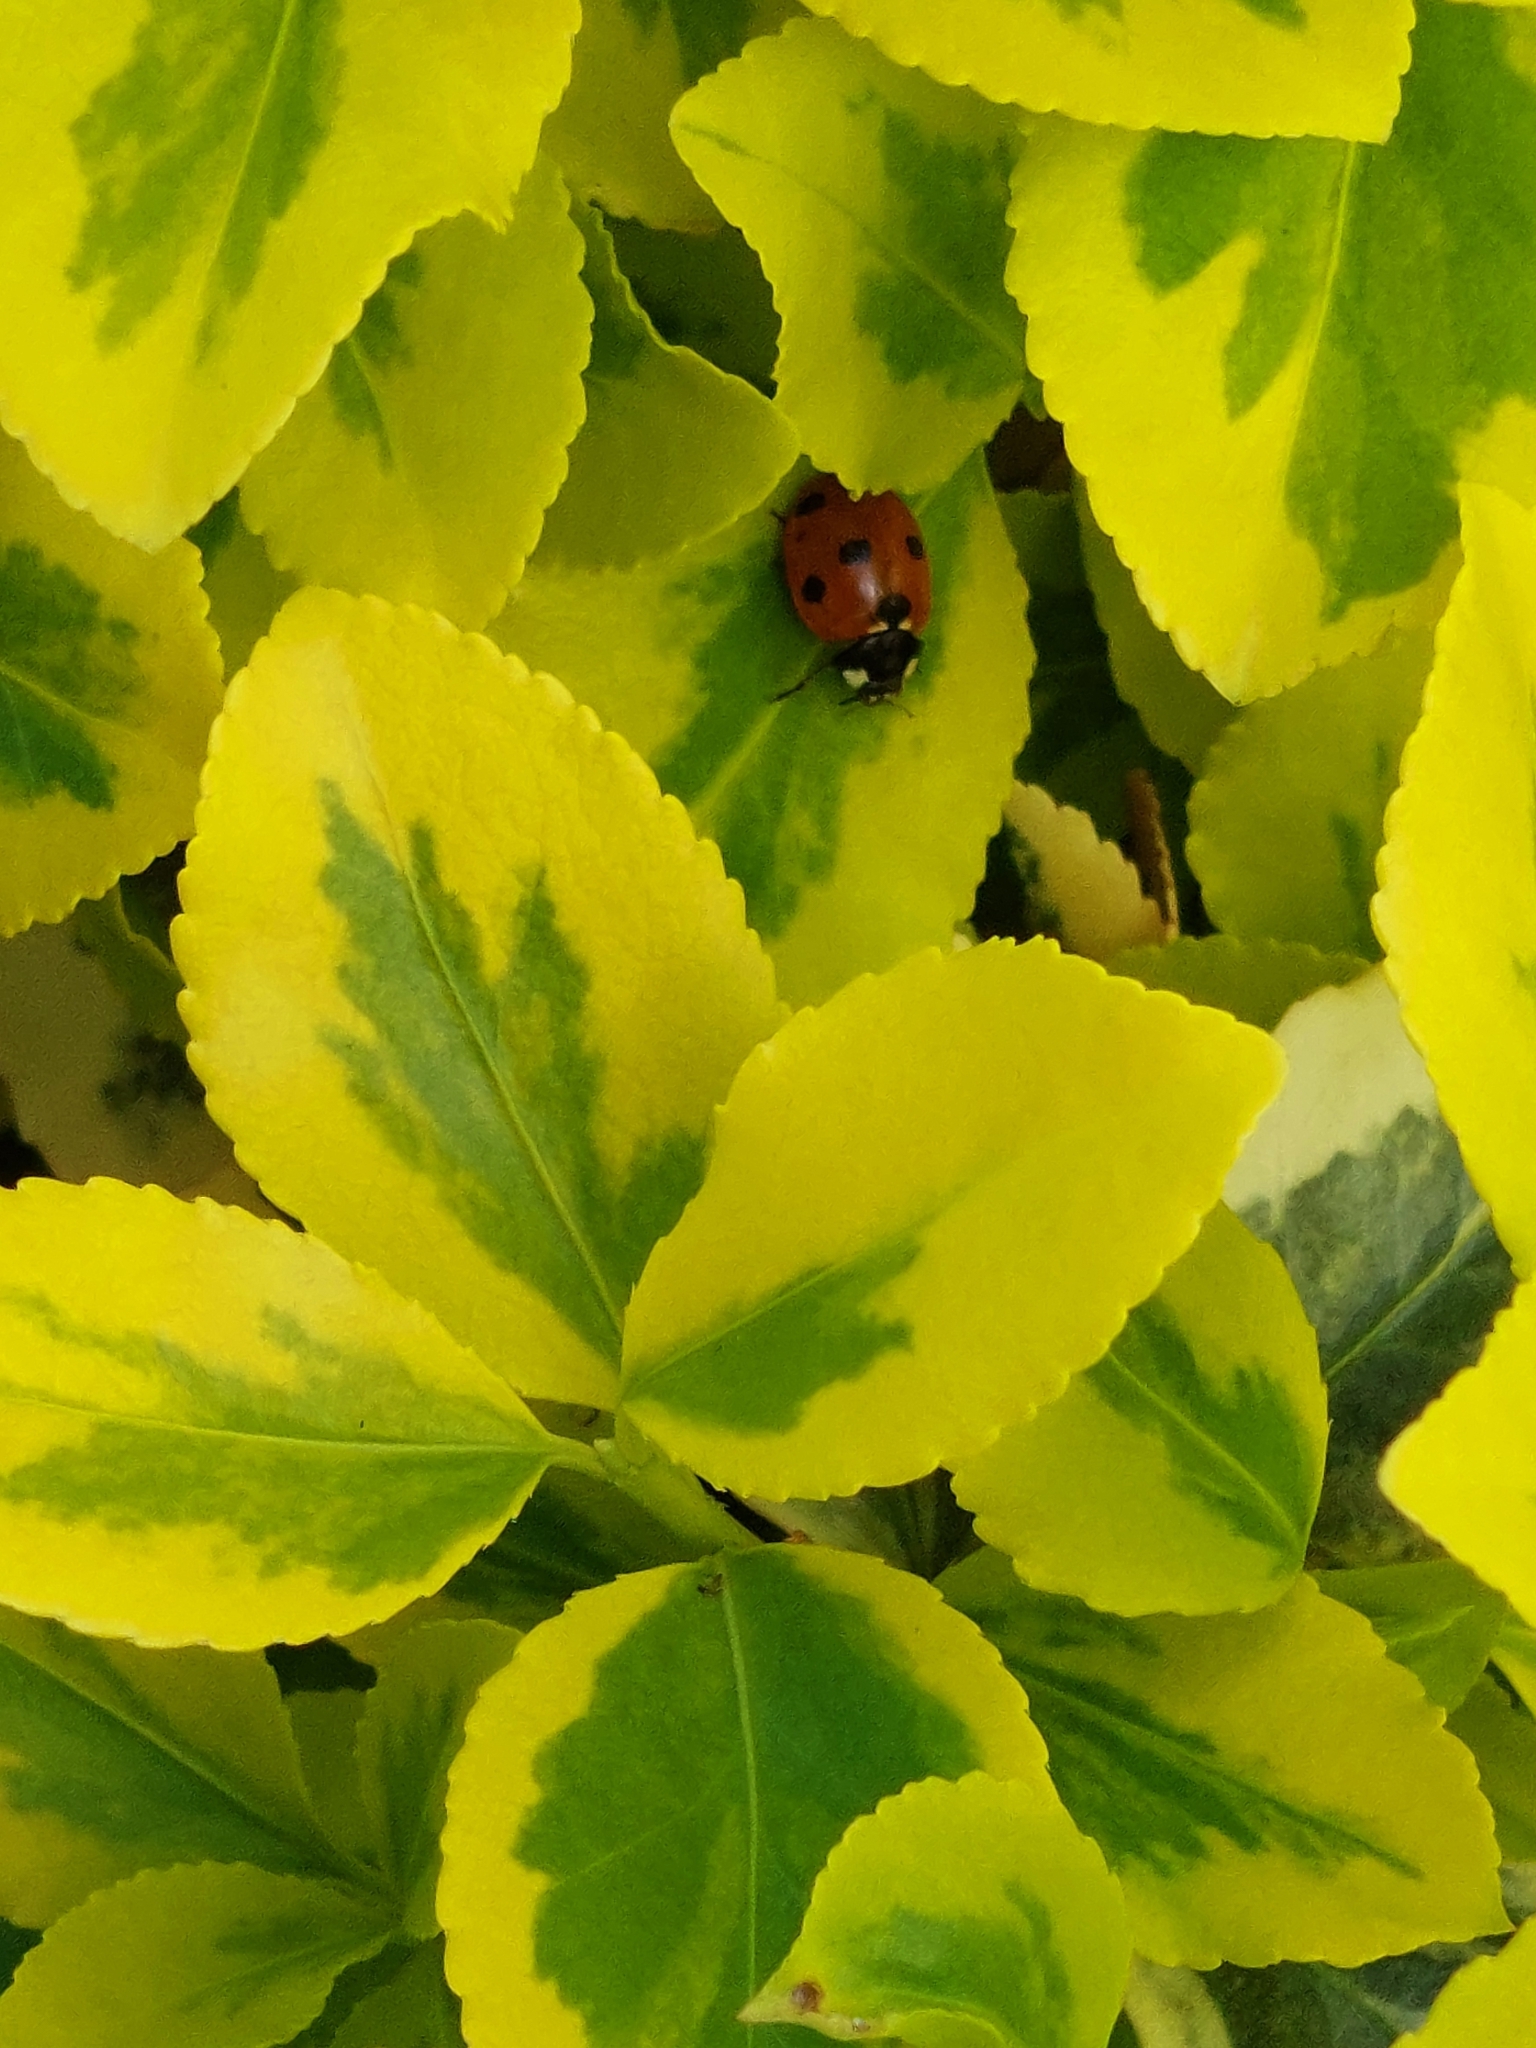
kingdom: Animalia
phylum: Arthropoda
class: Insecta
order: Coleoptera
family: Coccinellidae
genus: Coccinella
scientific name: Coccinella septempunctata
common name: Sevenspotted lady beetle
